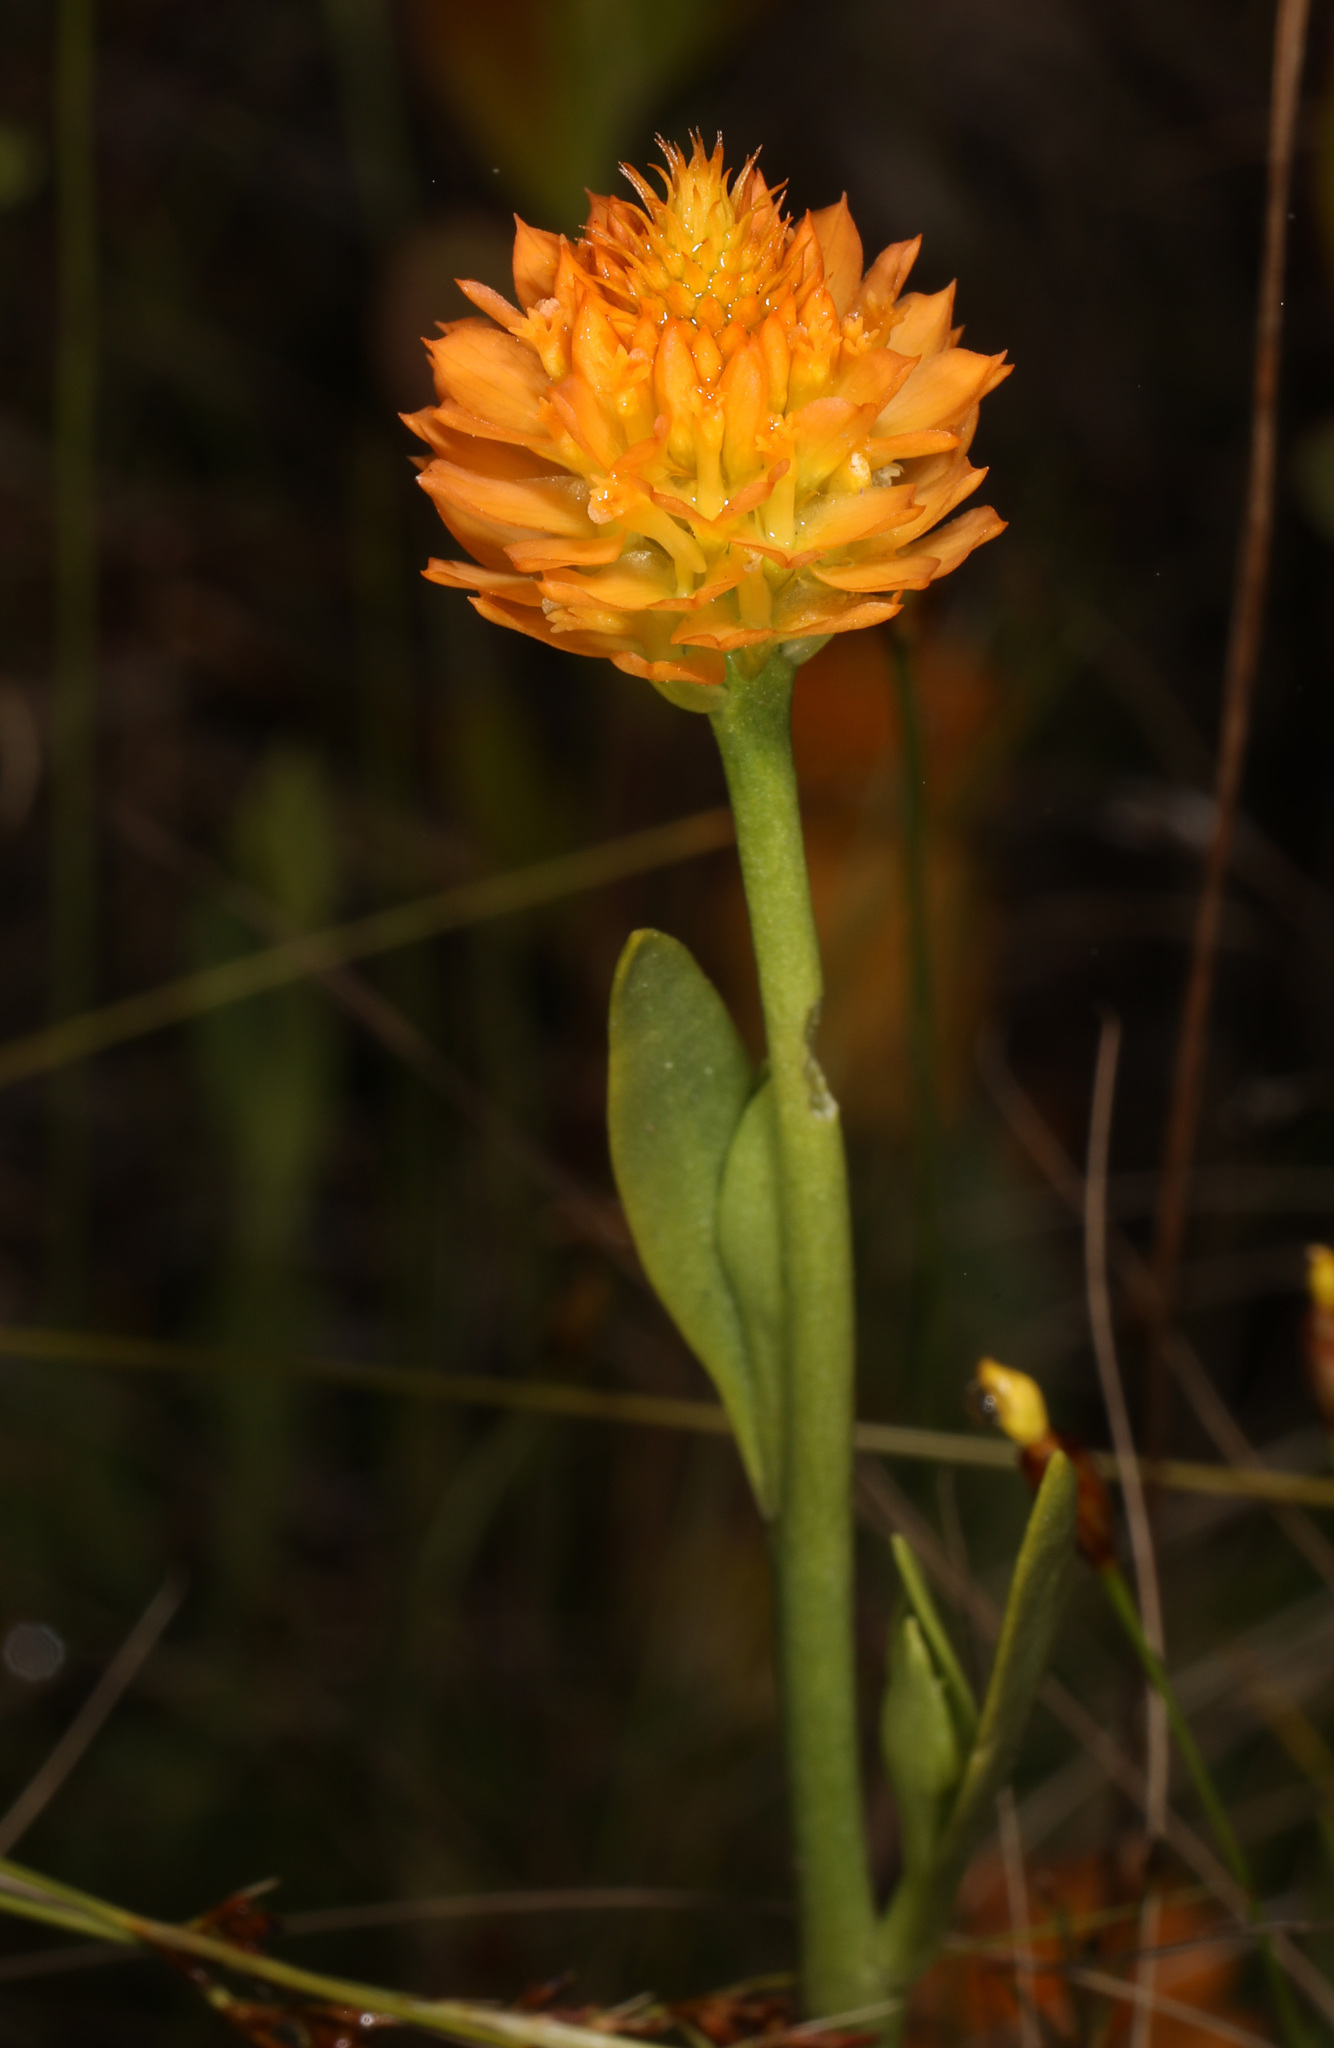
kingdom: Plantae
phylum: Tracheophyta
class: Magnoliopsida
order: Fabales
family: Polygalaceae
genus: Polygala
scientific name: Polygala lutea
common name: Orange milkwort
